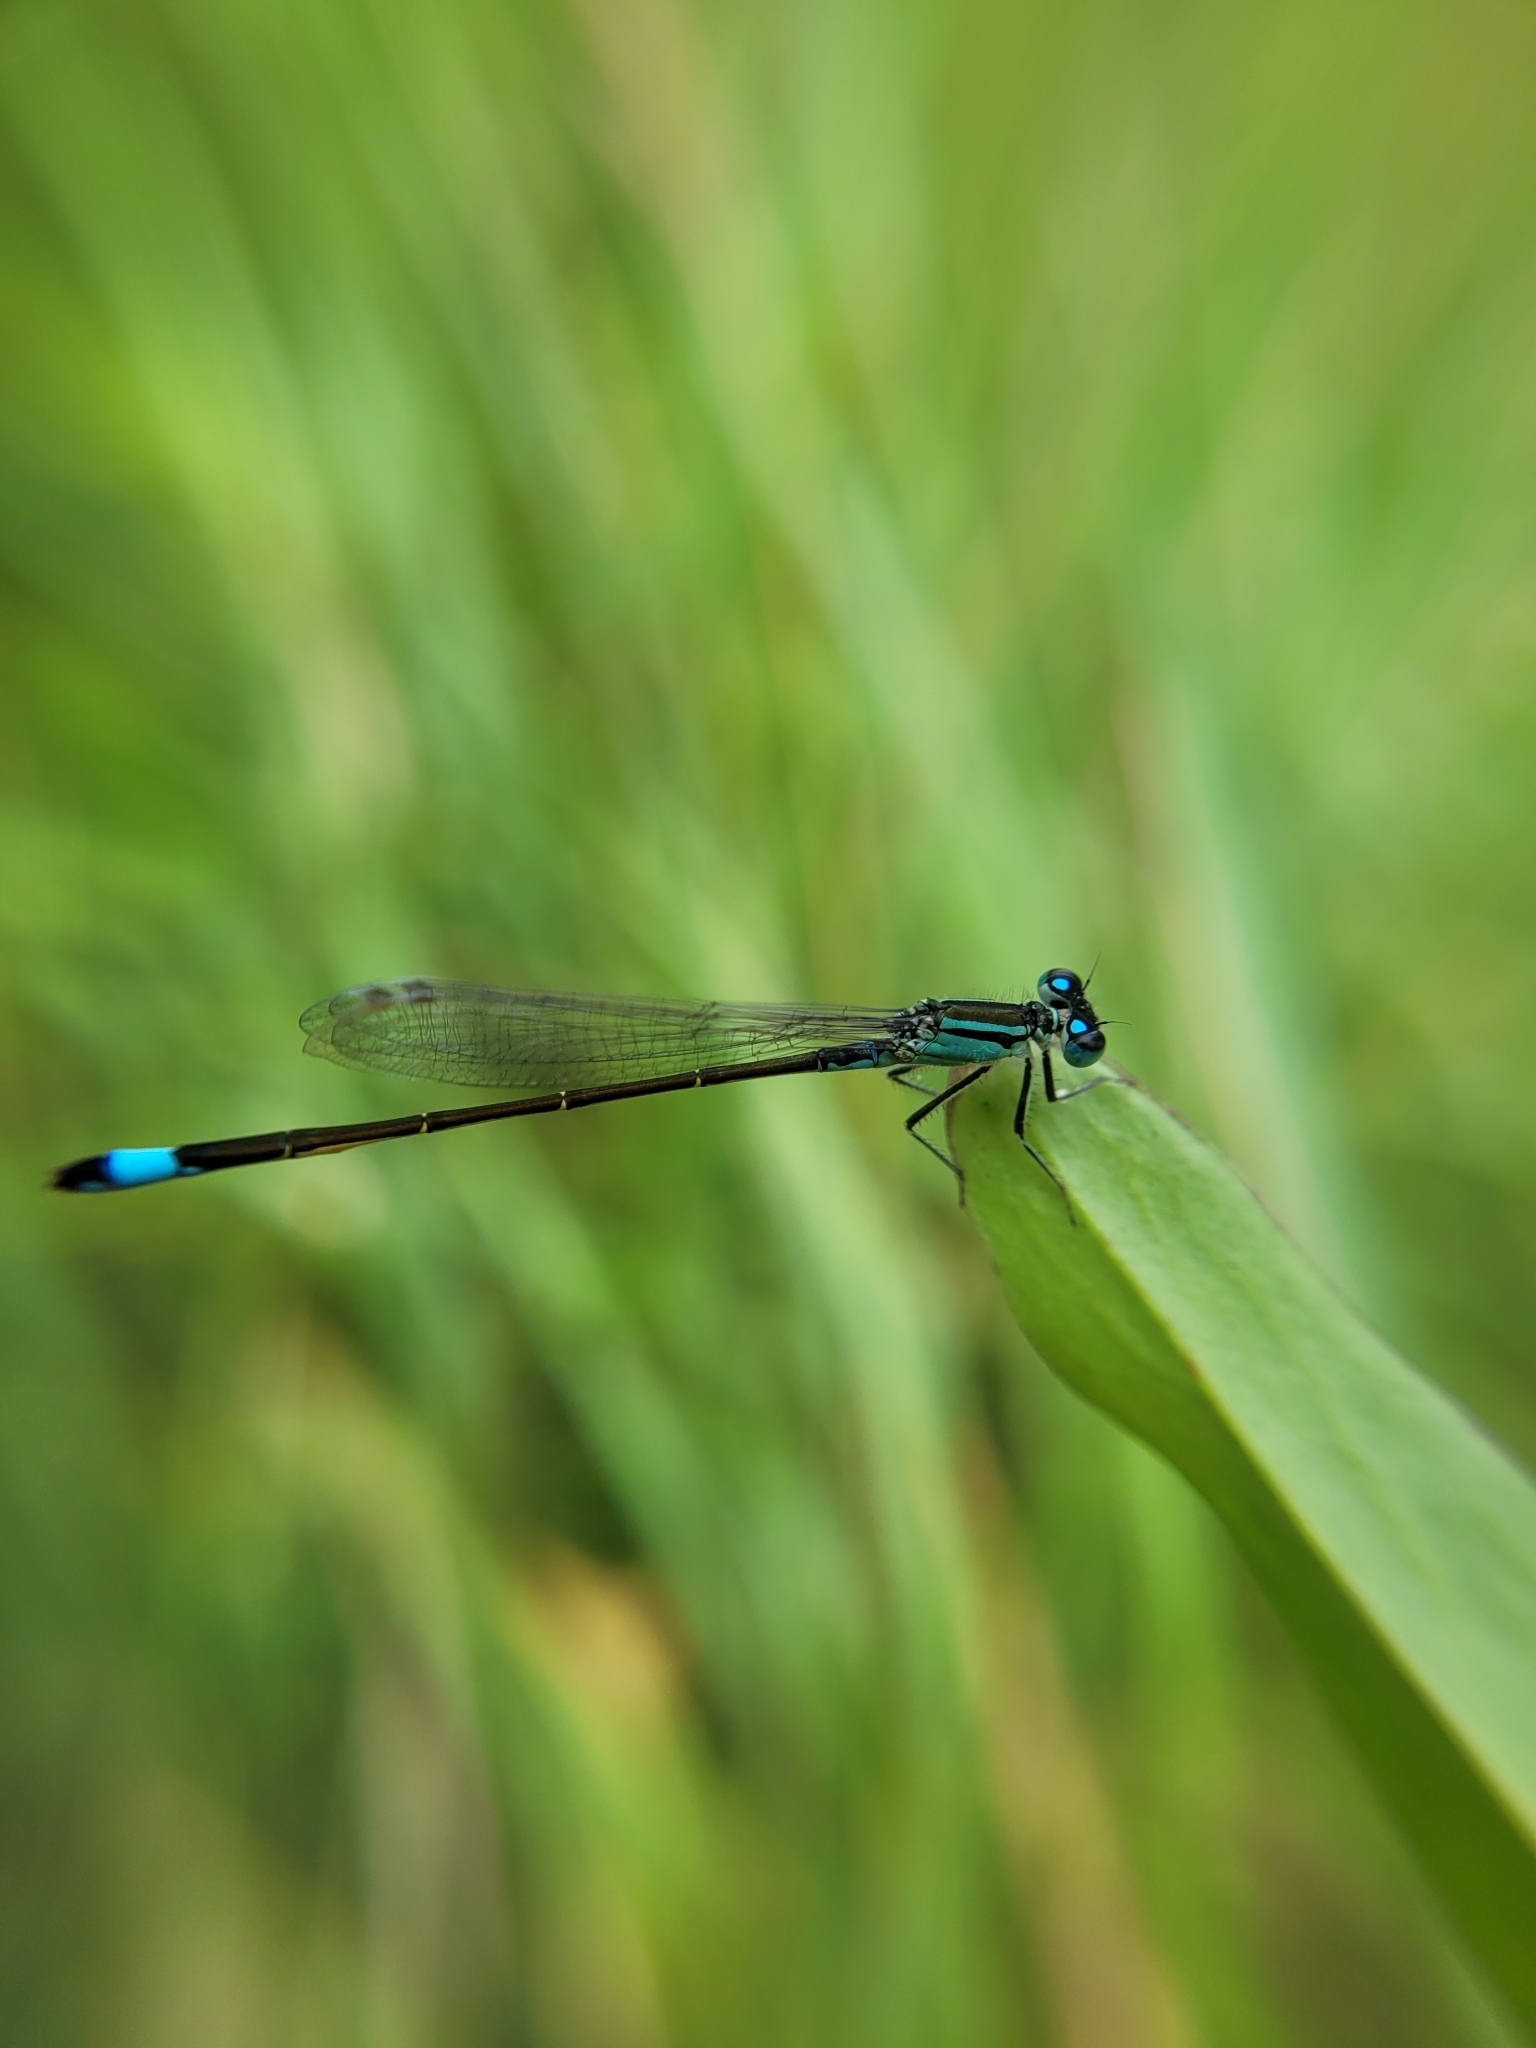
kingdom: Animalia
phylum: Arthropoda
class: Insecta
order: Odonata
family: Coenagrionidae
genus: Ischnura
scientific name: Ischnura elegans
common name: Blue-tailed damselfly
